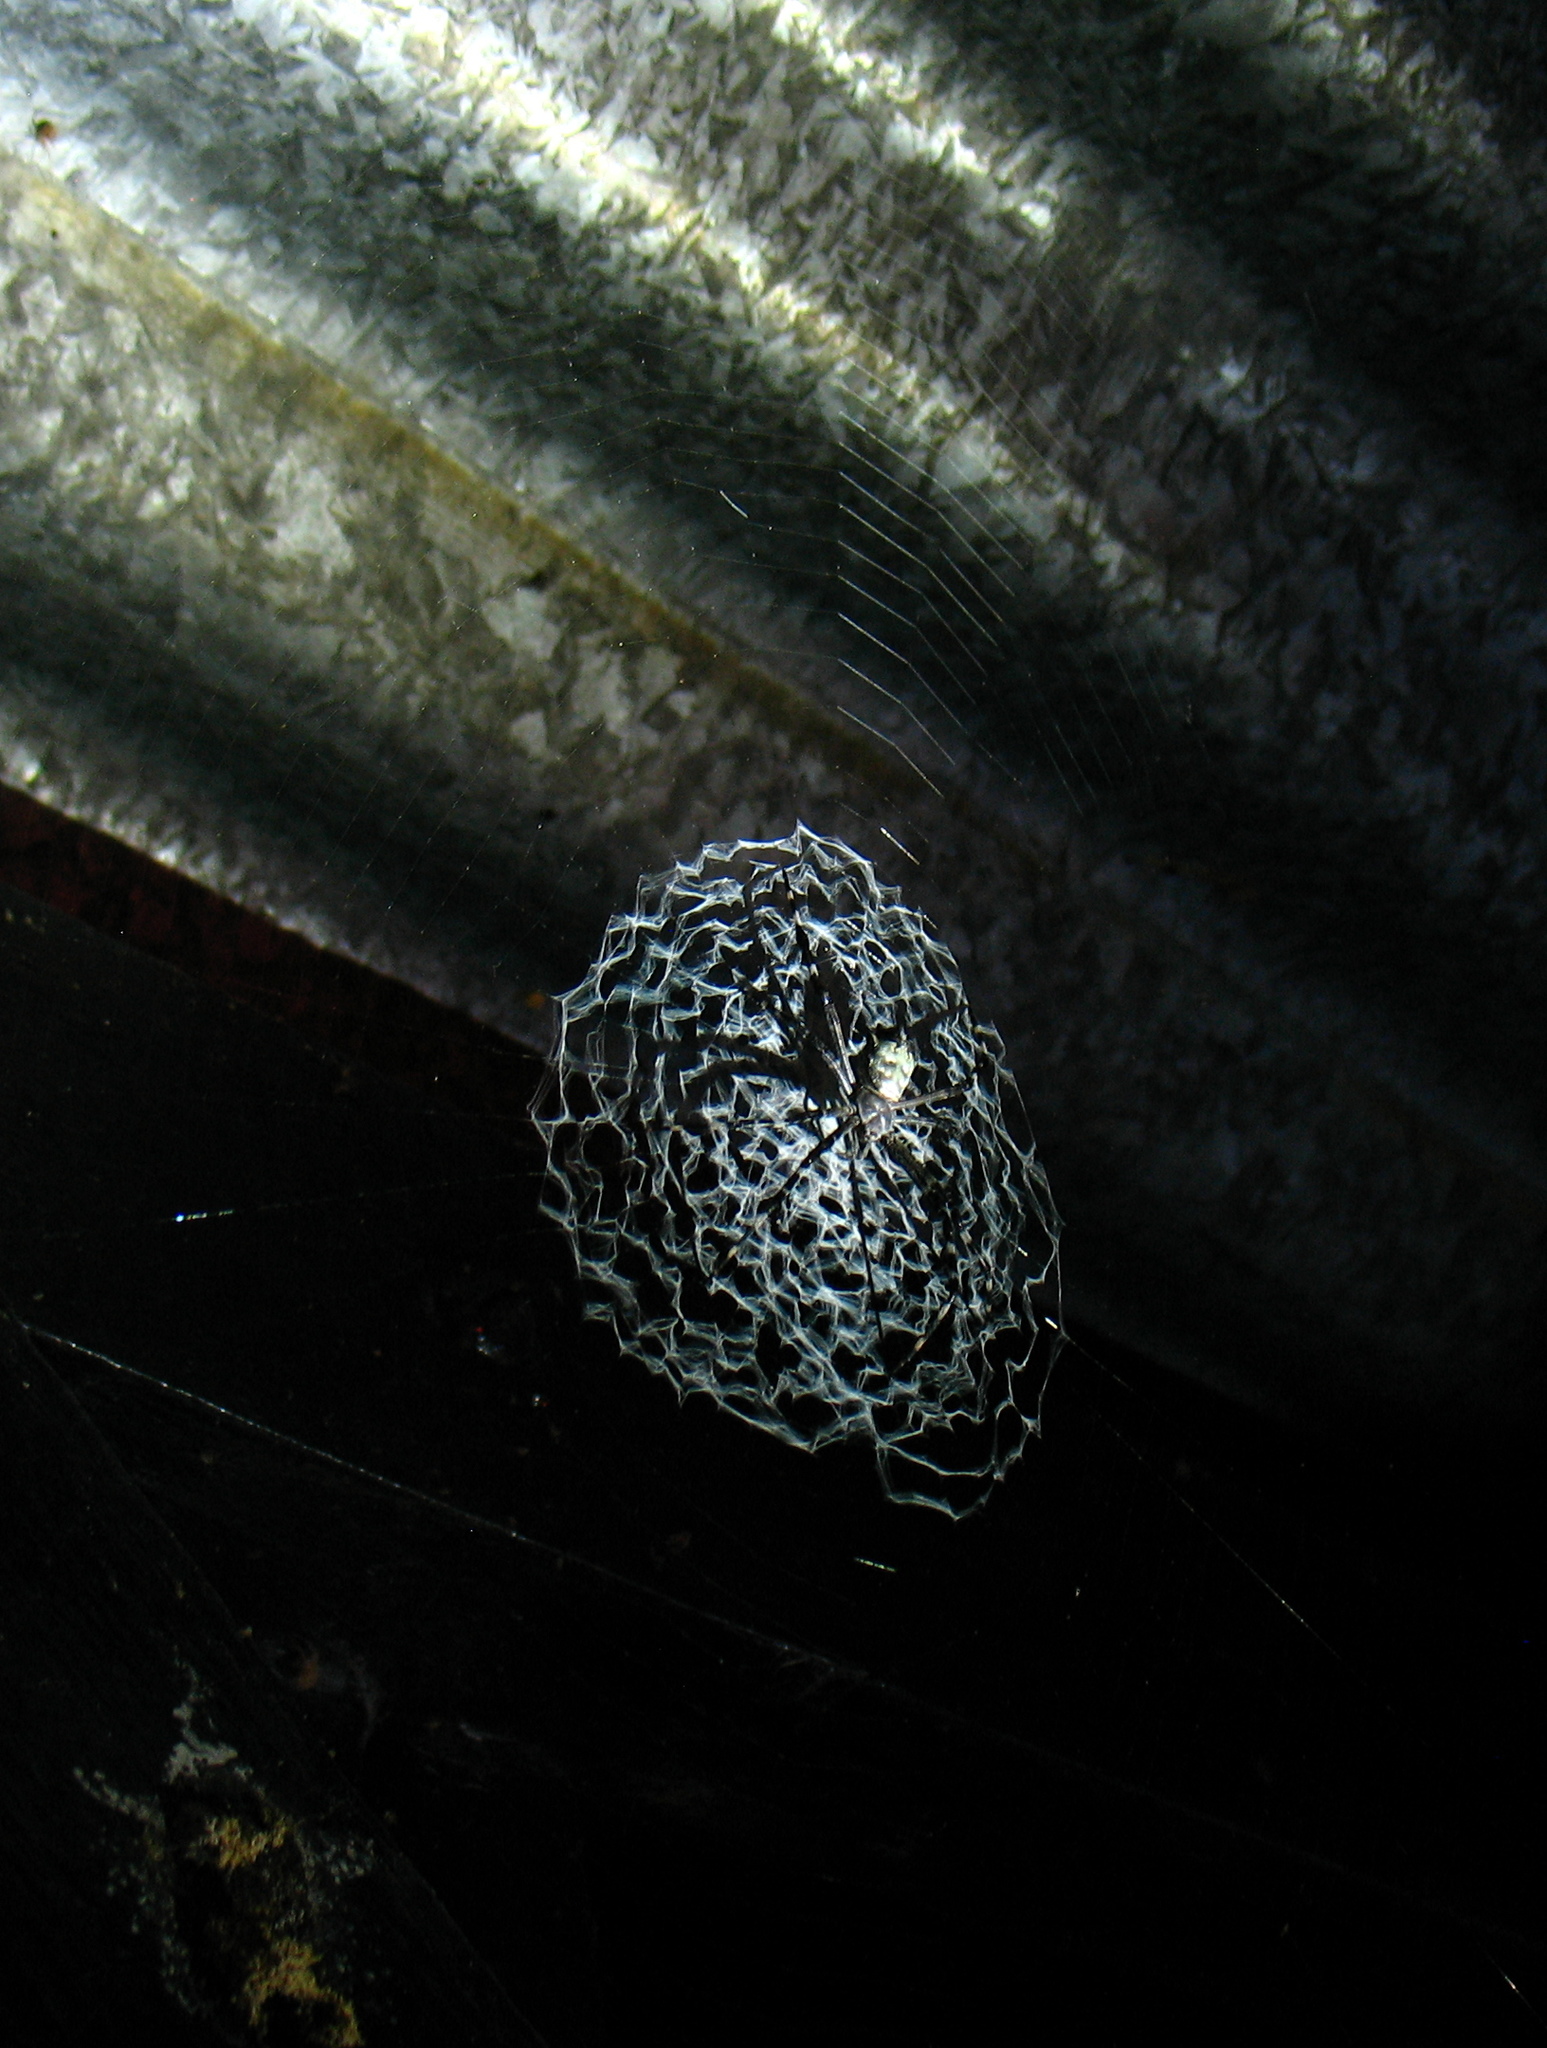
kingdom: Animalia
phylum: Arthropoda
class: Arachnida
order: Araneae
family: Araneidae
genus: Argiope
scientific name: Argiope submaronica
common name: Orb weavers
